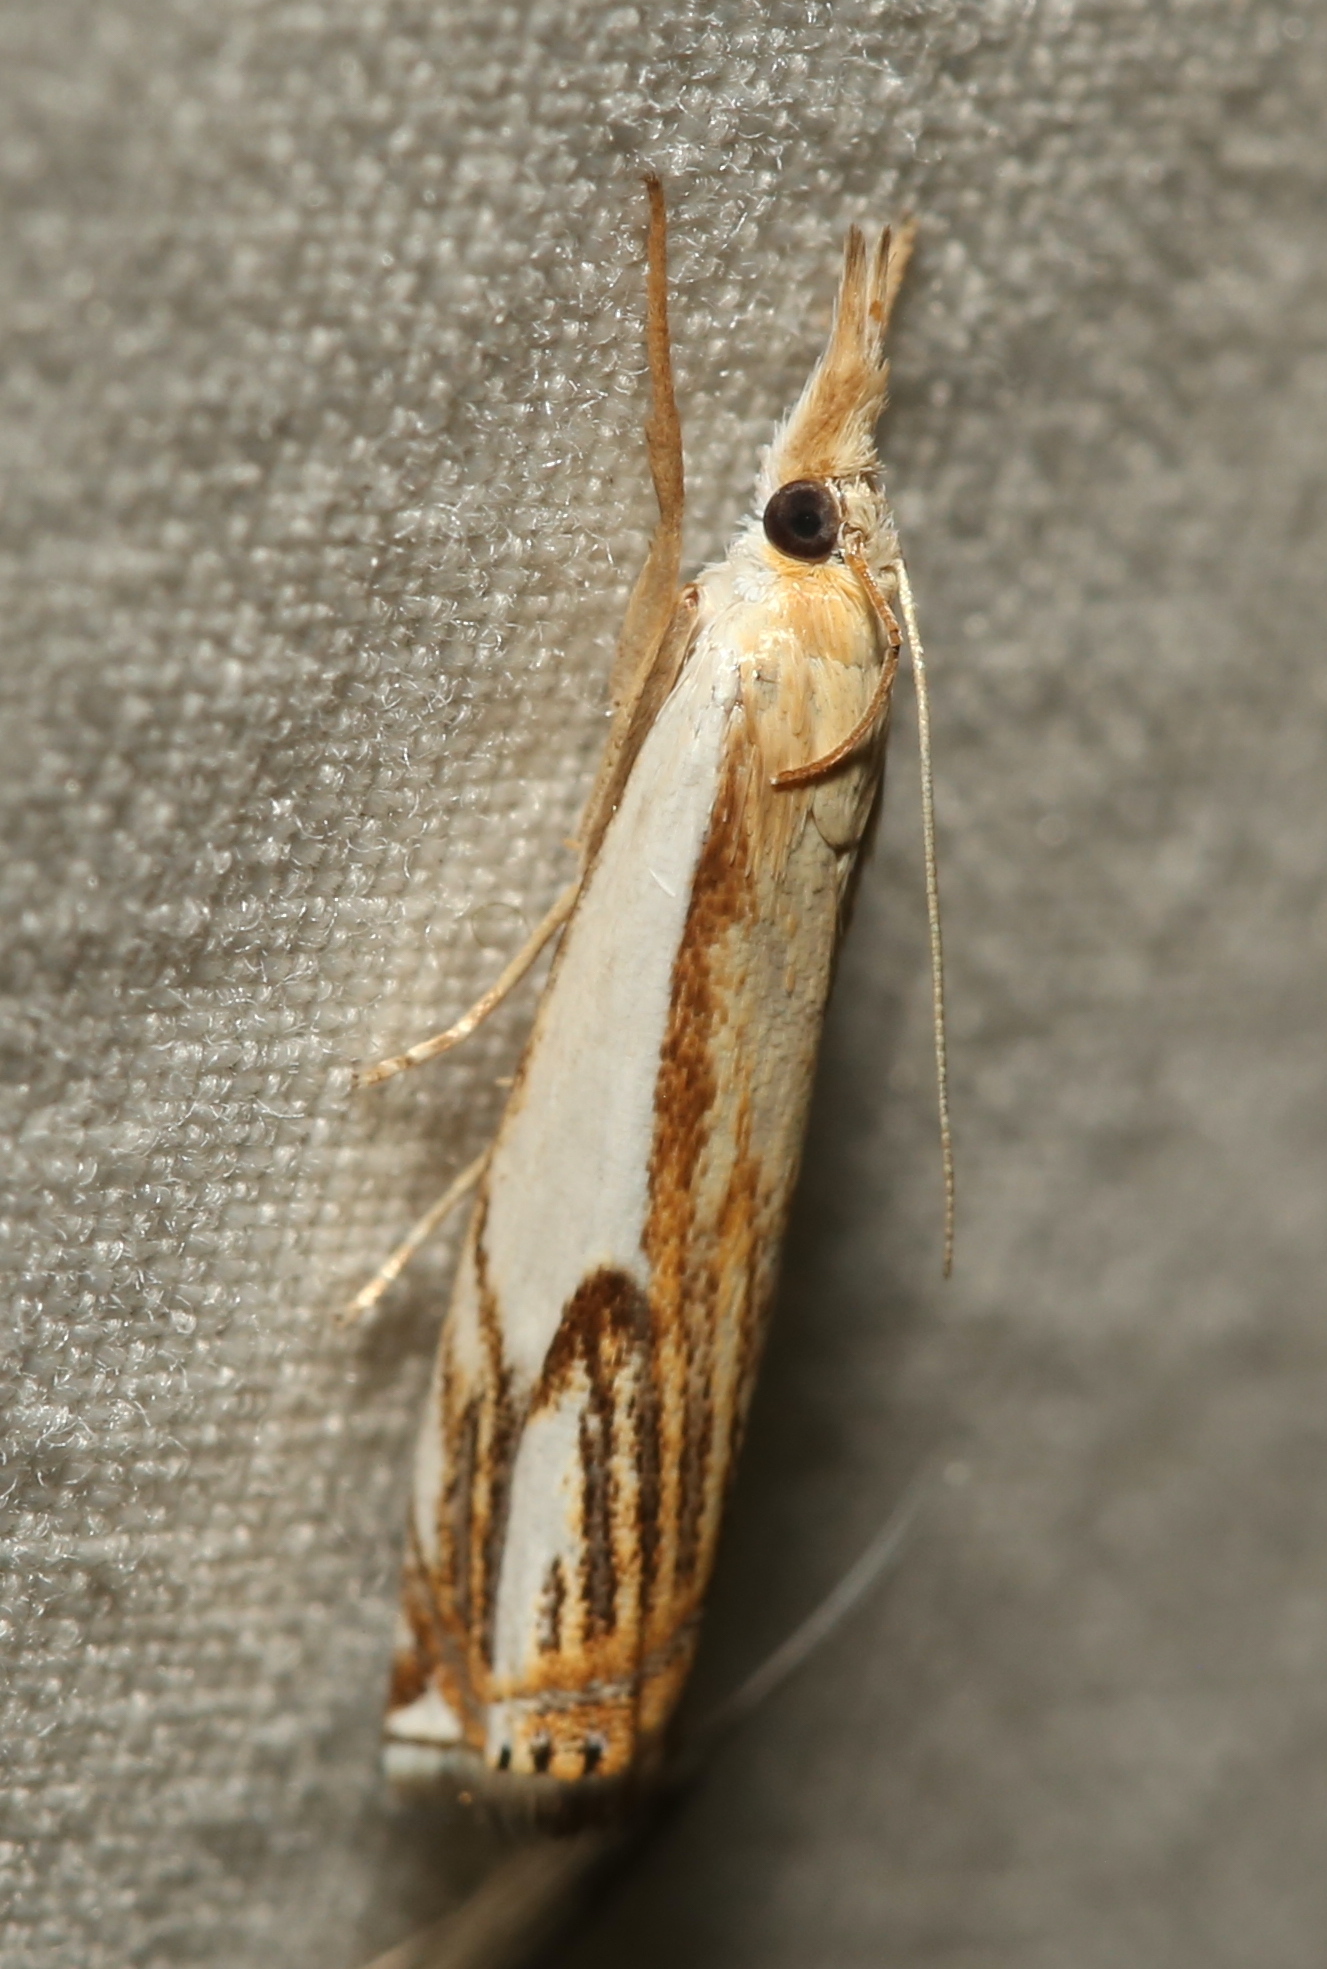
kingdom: Animalia
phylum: Arthropoda
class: Insecta
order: Lepidoptera
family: Crambidae
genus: Crambus
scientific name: Crambus agitatellus
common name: Double-banded grass-veneer
